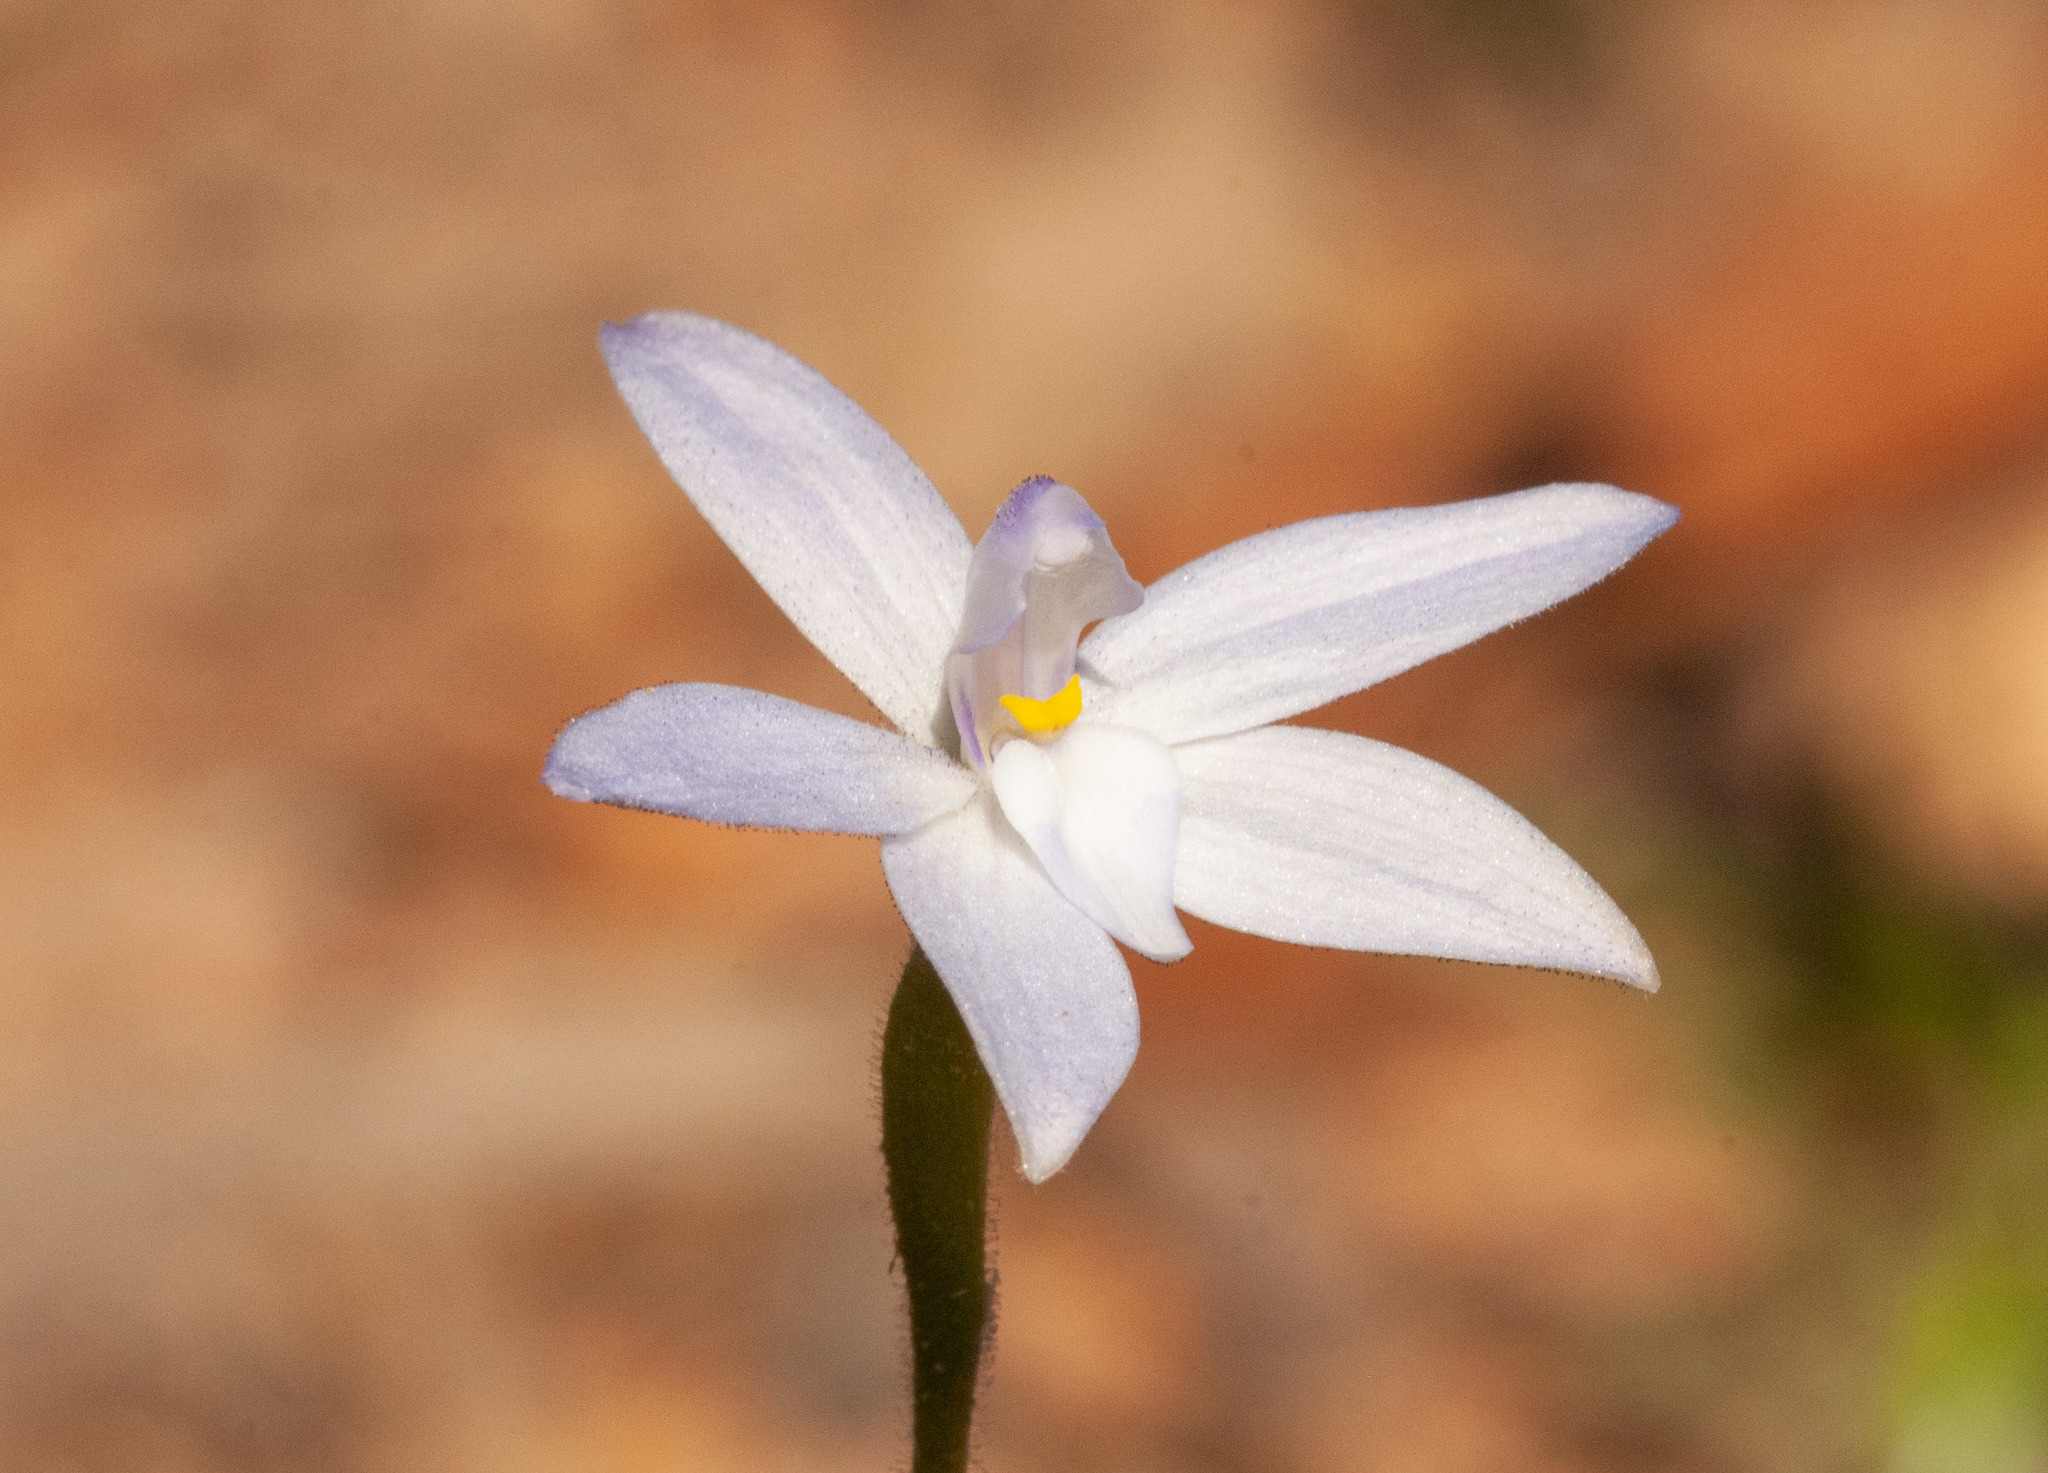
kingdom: Plantae
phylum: Tracheophyta
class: Liliopsida
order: Asparagales
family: Orchidaceae
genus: Caladenia
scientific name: Caladenia major
